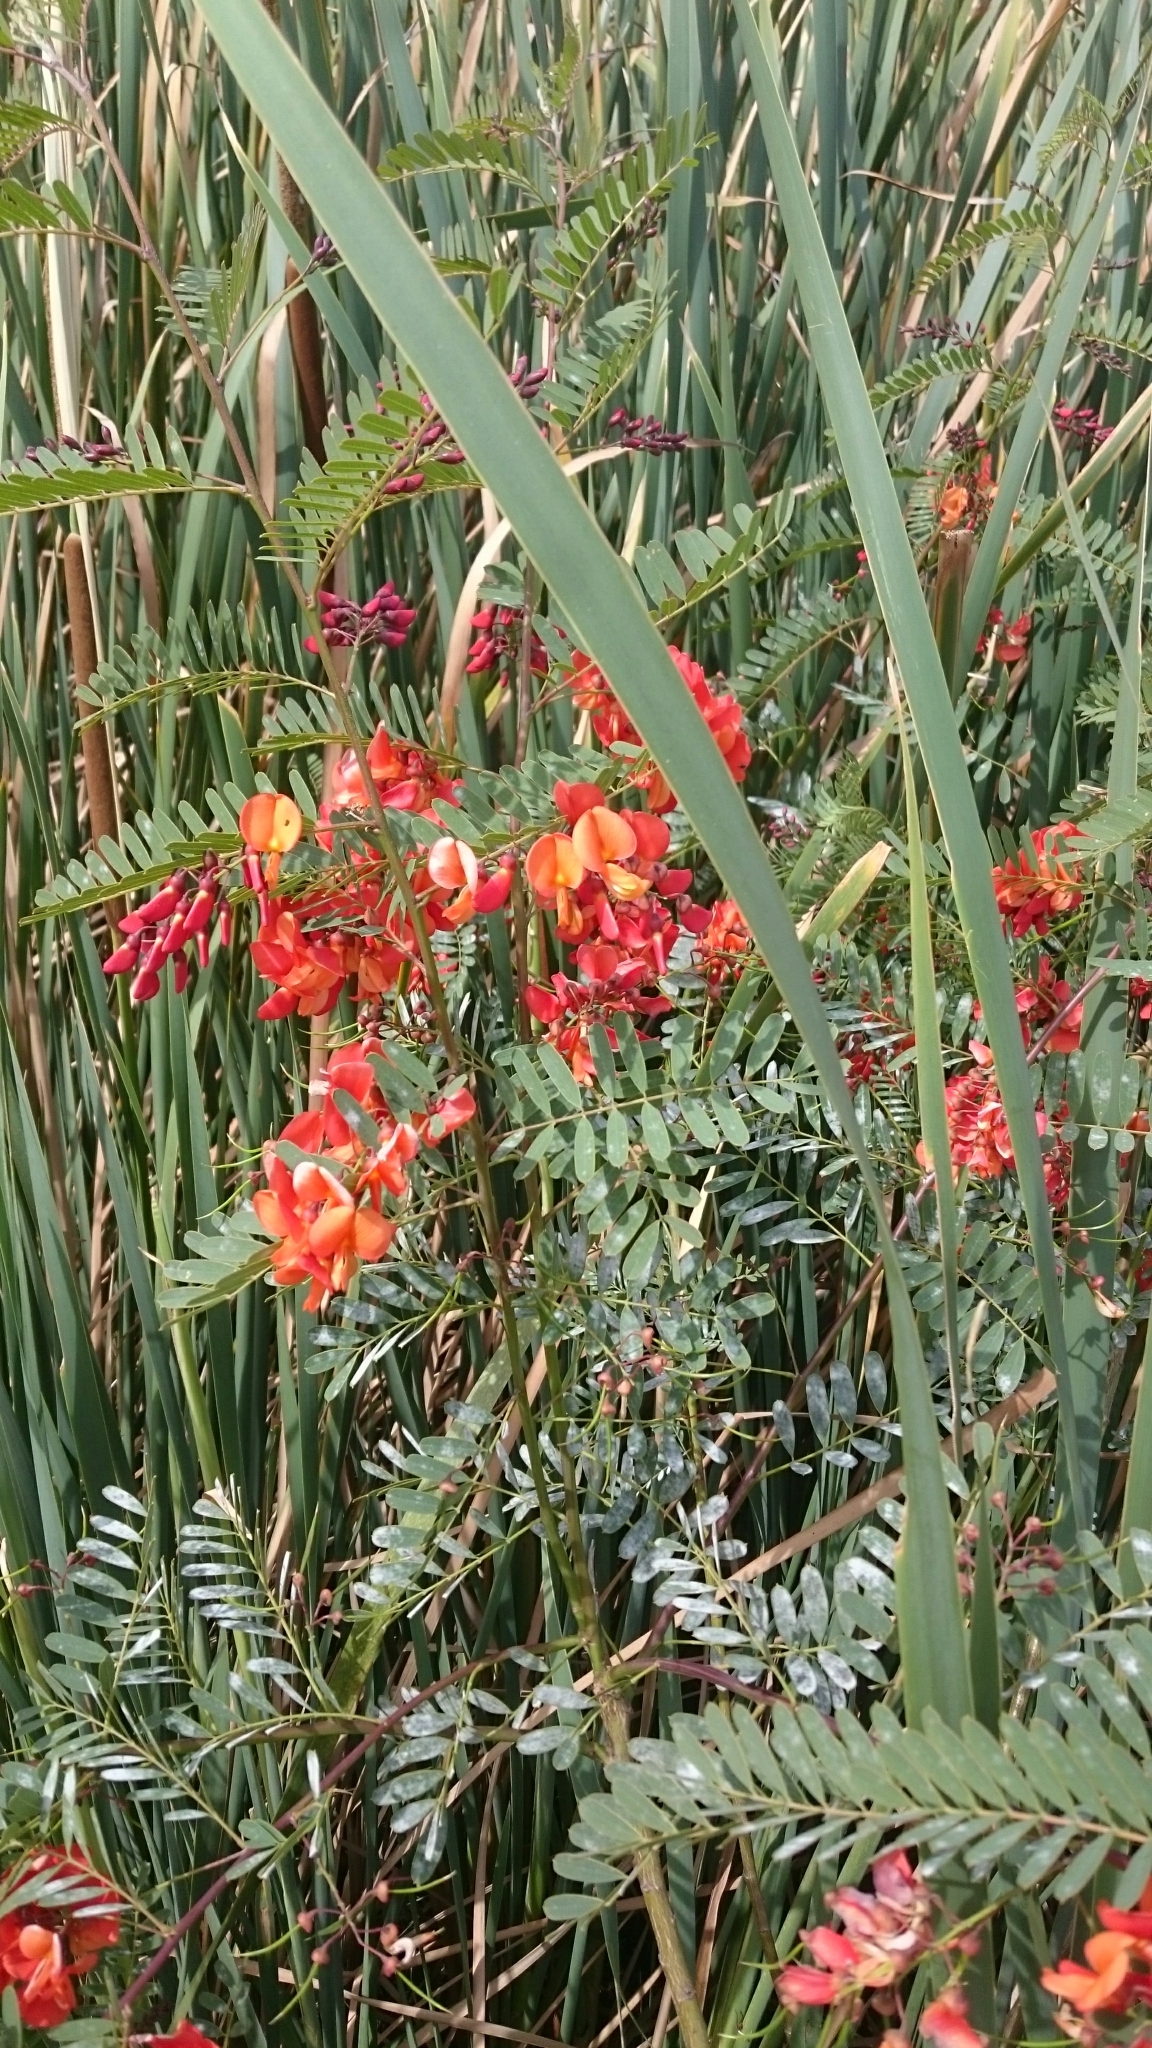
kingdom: Plantae
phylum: Tracheophyta
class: Magnoliopsida
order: Fabales
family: Fabaceae
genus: Sesbania
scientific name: Sesbania punicea
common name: Rattlebox
